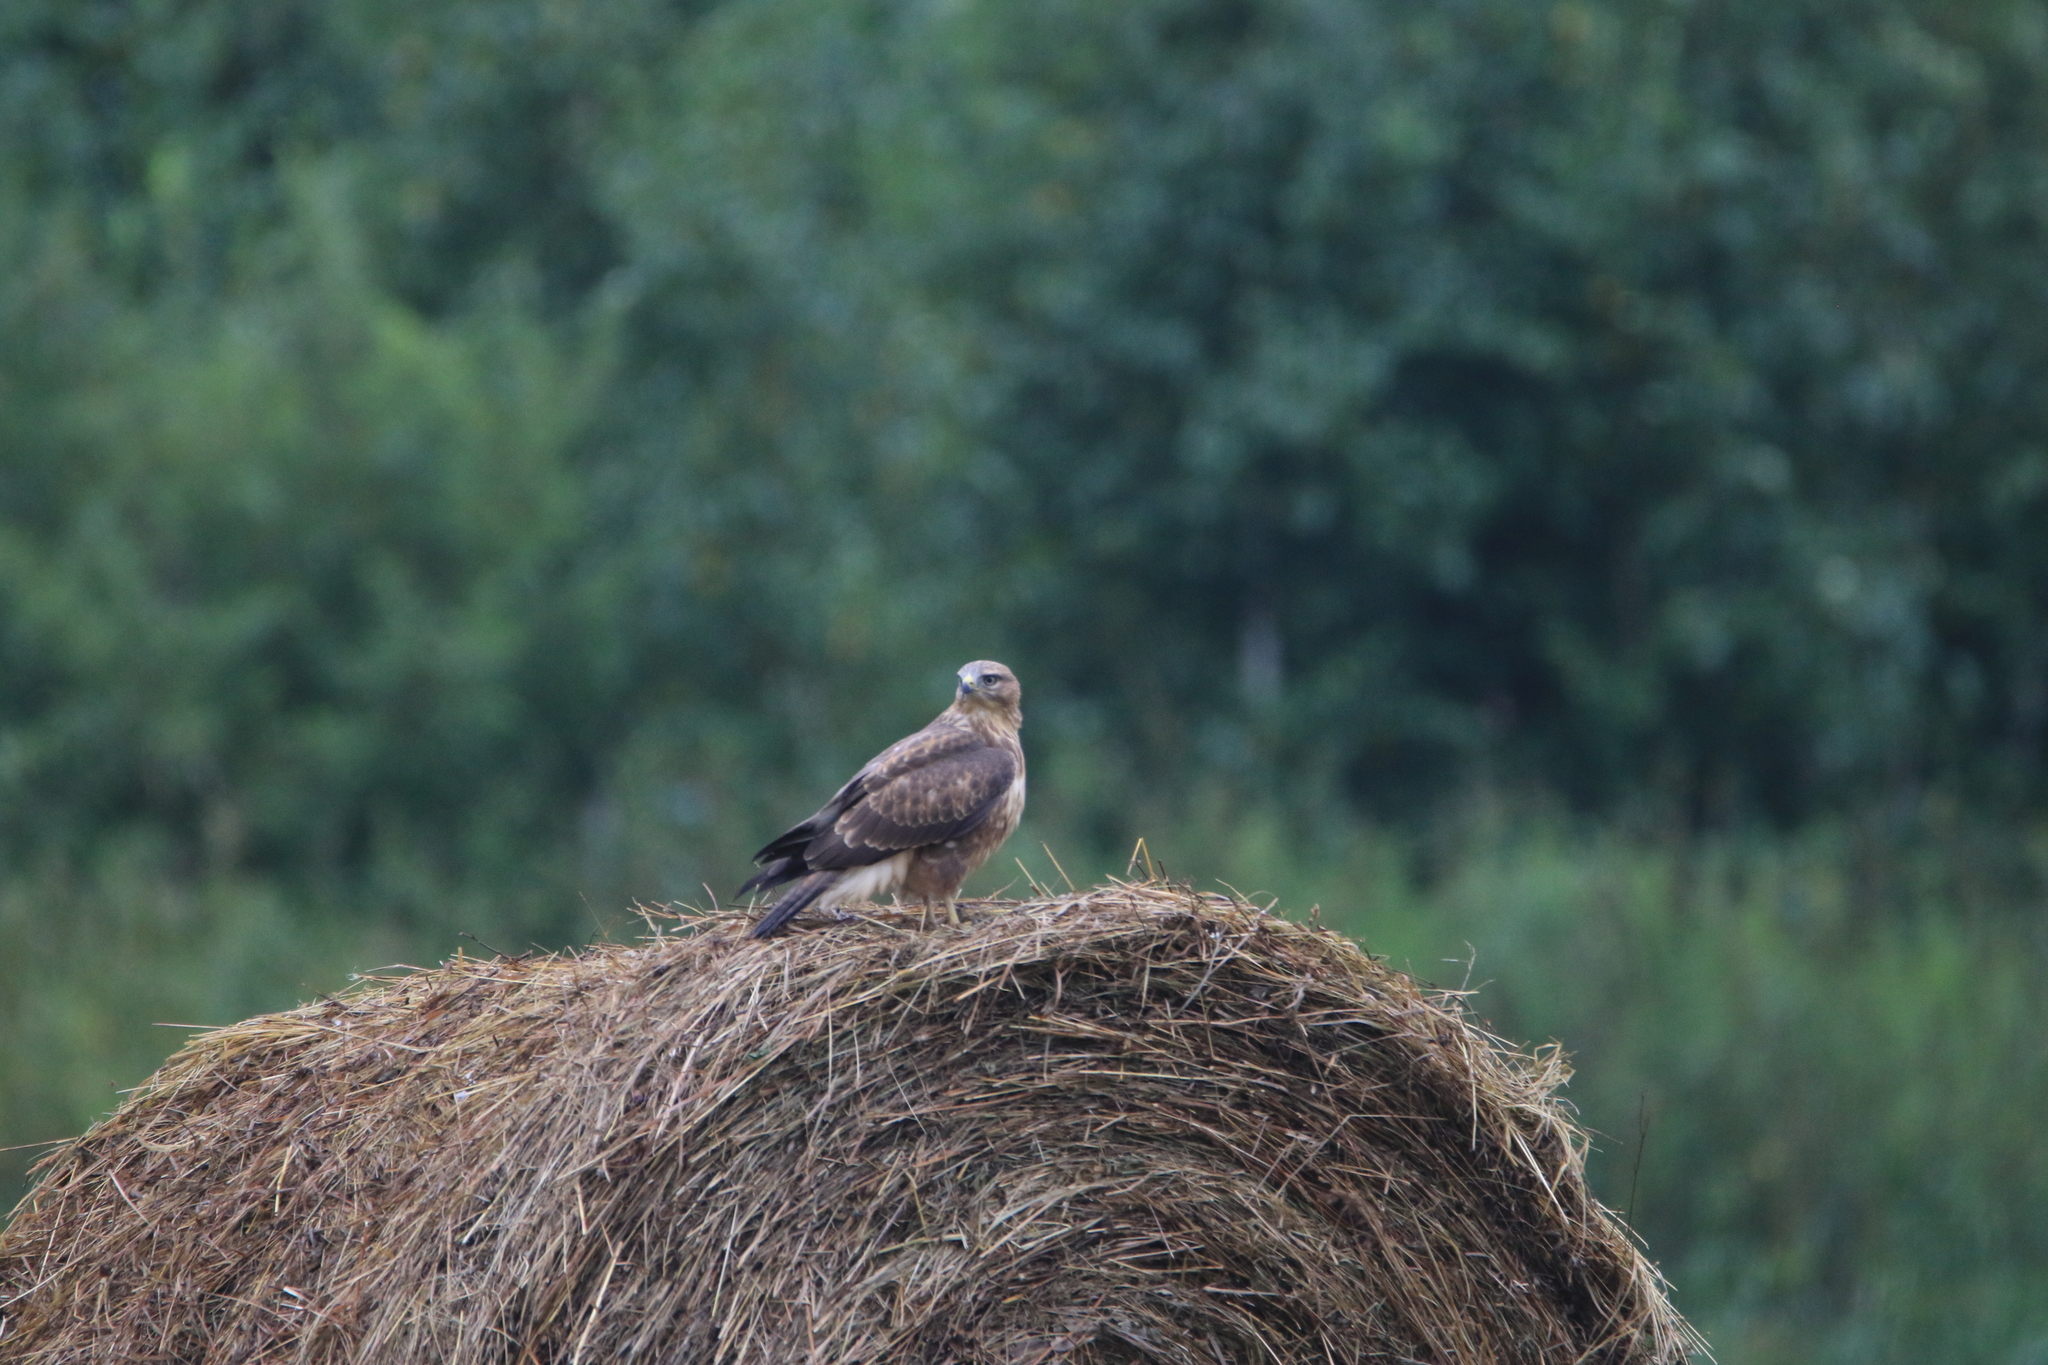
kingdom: Animalia
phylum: Chordata
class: Aves
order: Accipitriformes
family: Accipitridae
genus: Buteo
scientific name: Buteo buteo
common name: Common buzzard
